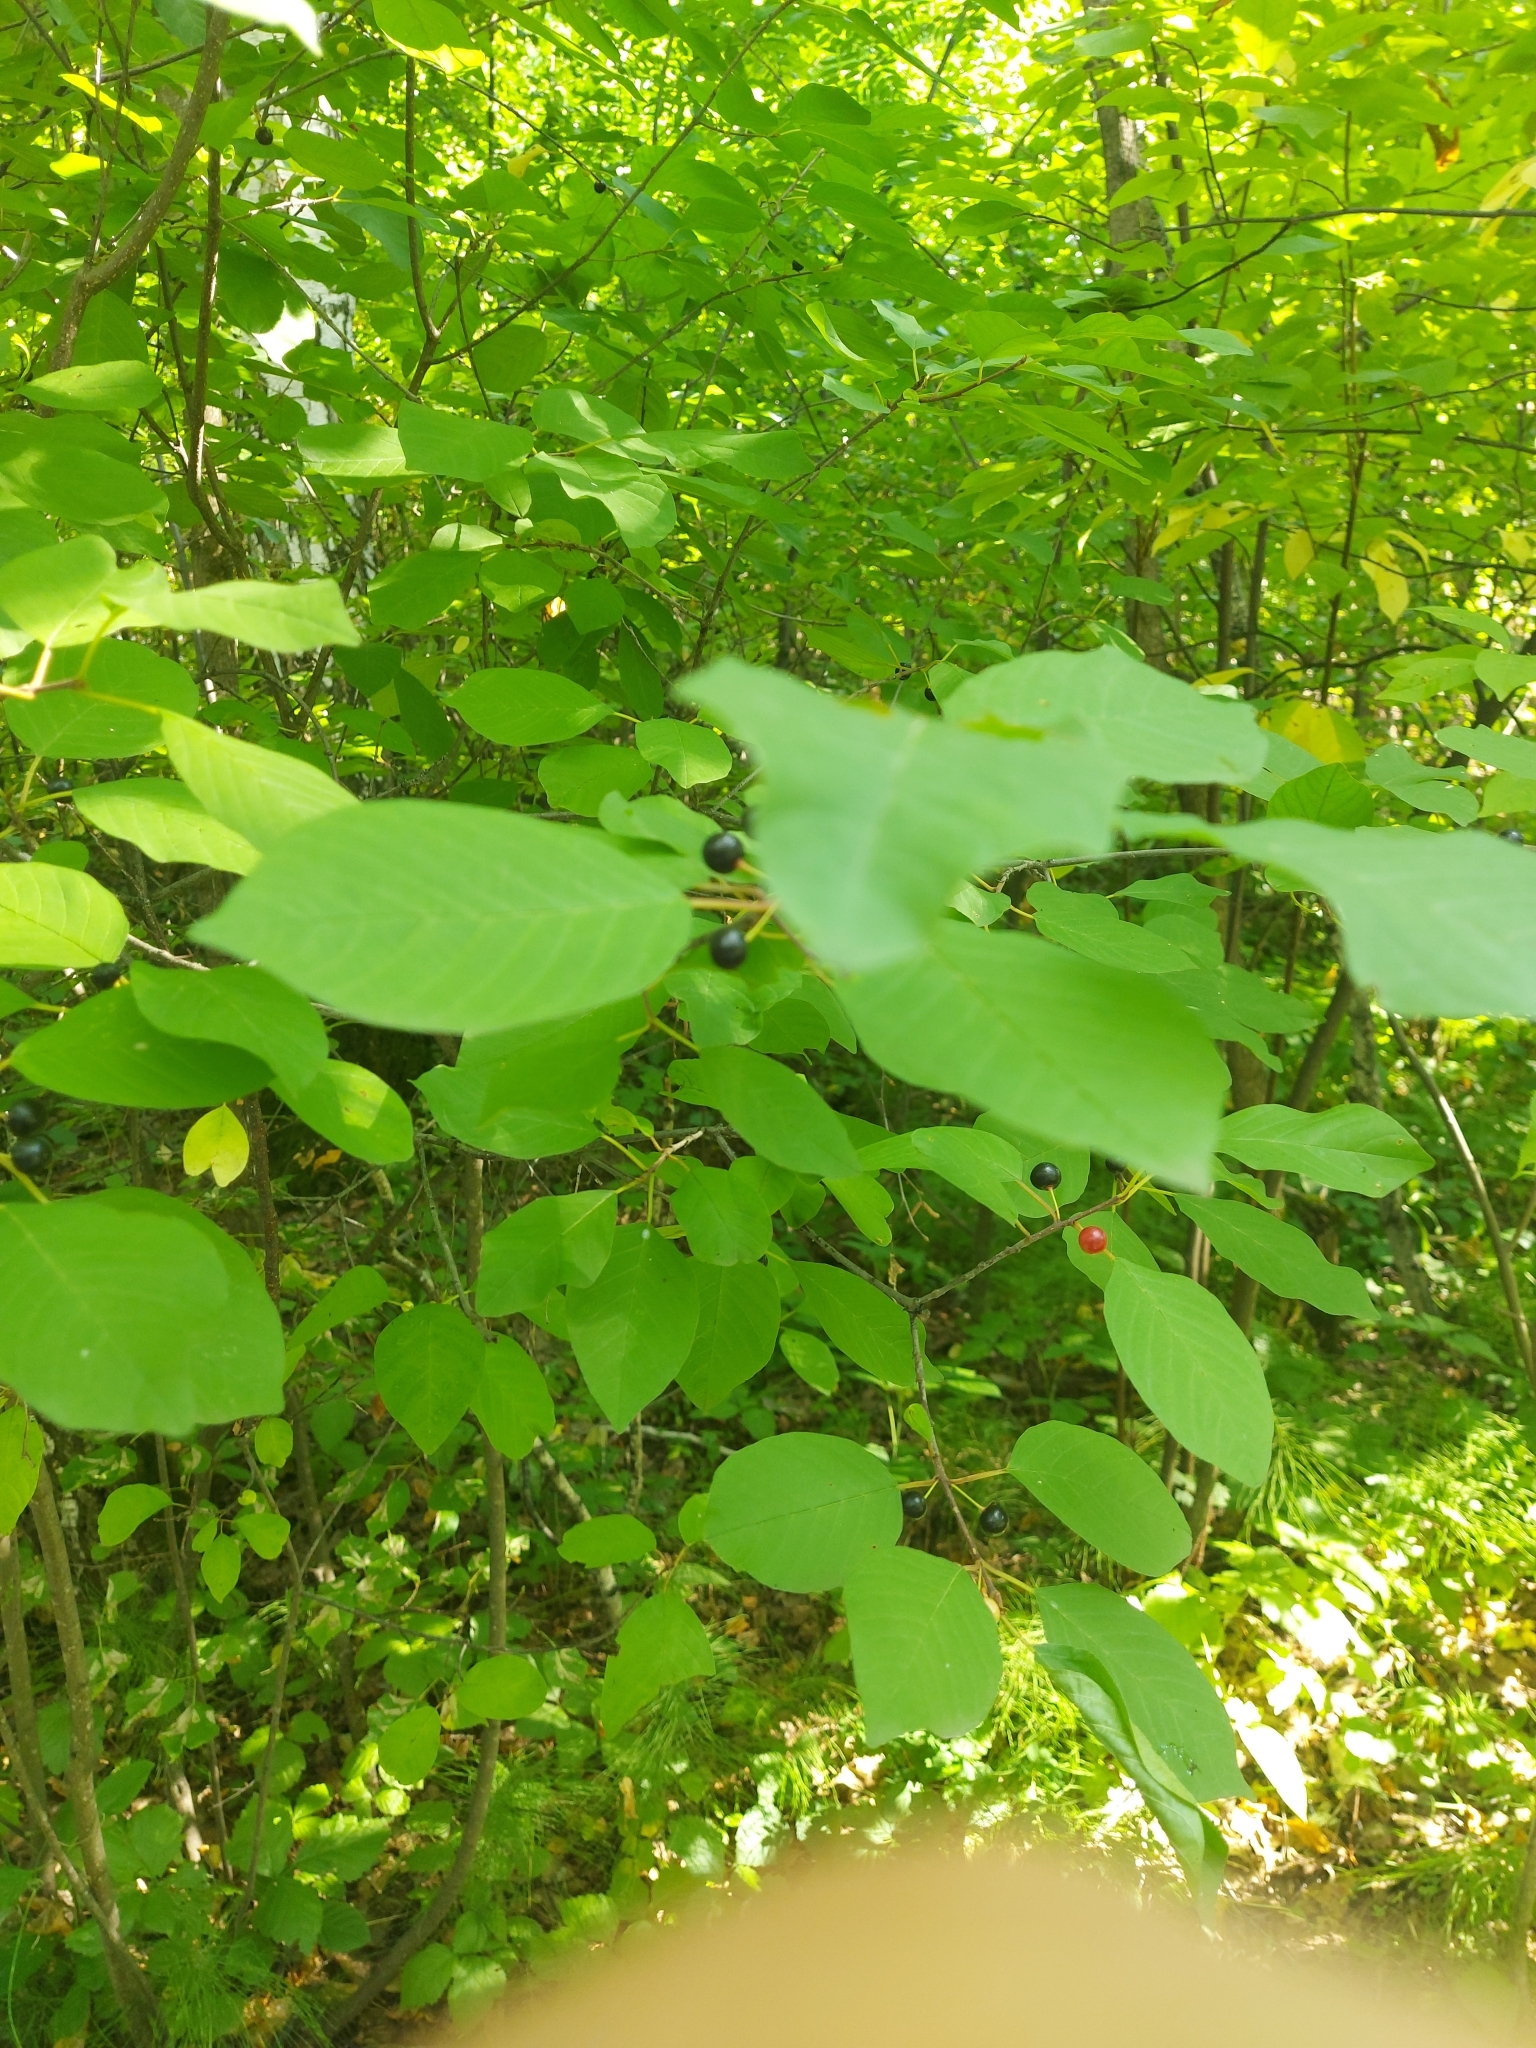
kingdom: Plantae
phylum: Tracheophyta
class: Magnoliopsida
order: Rosales
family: Rhamnaceae
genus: Frangula
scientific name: Frangula alnus
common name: Alder buckthorn
